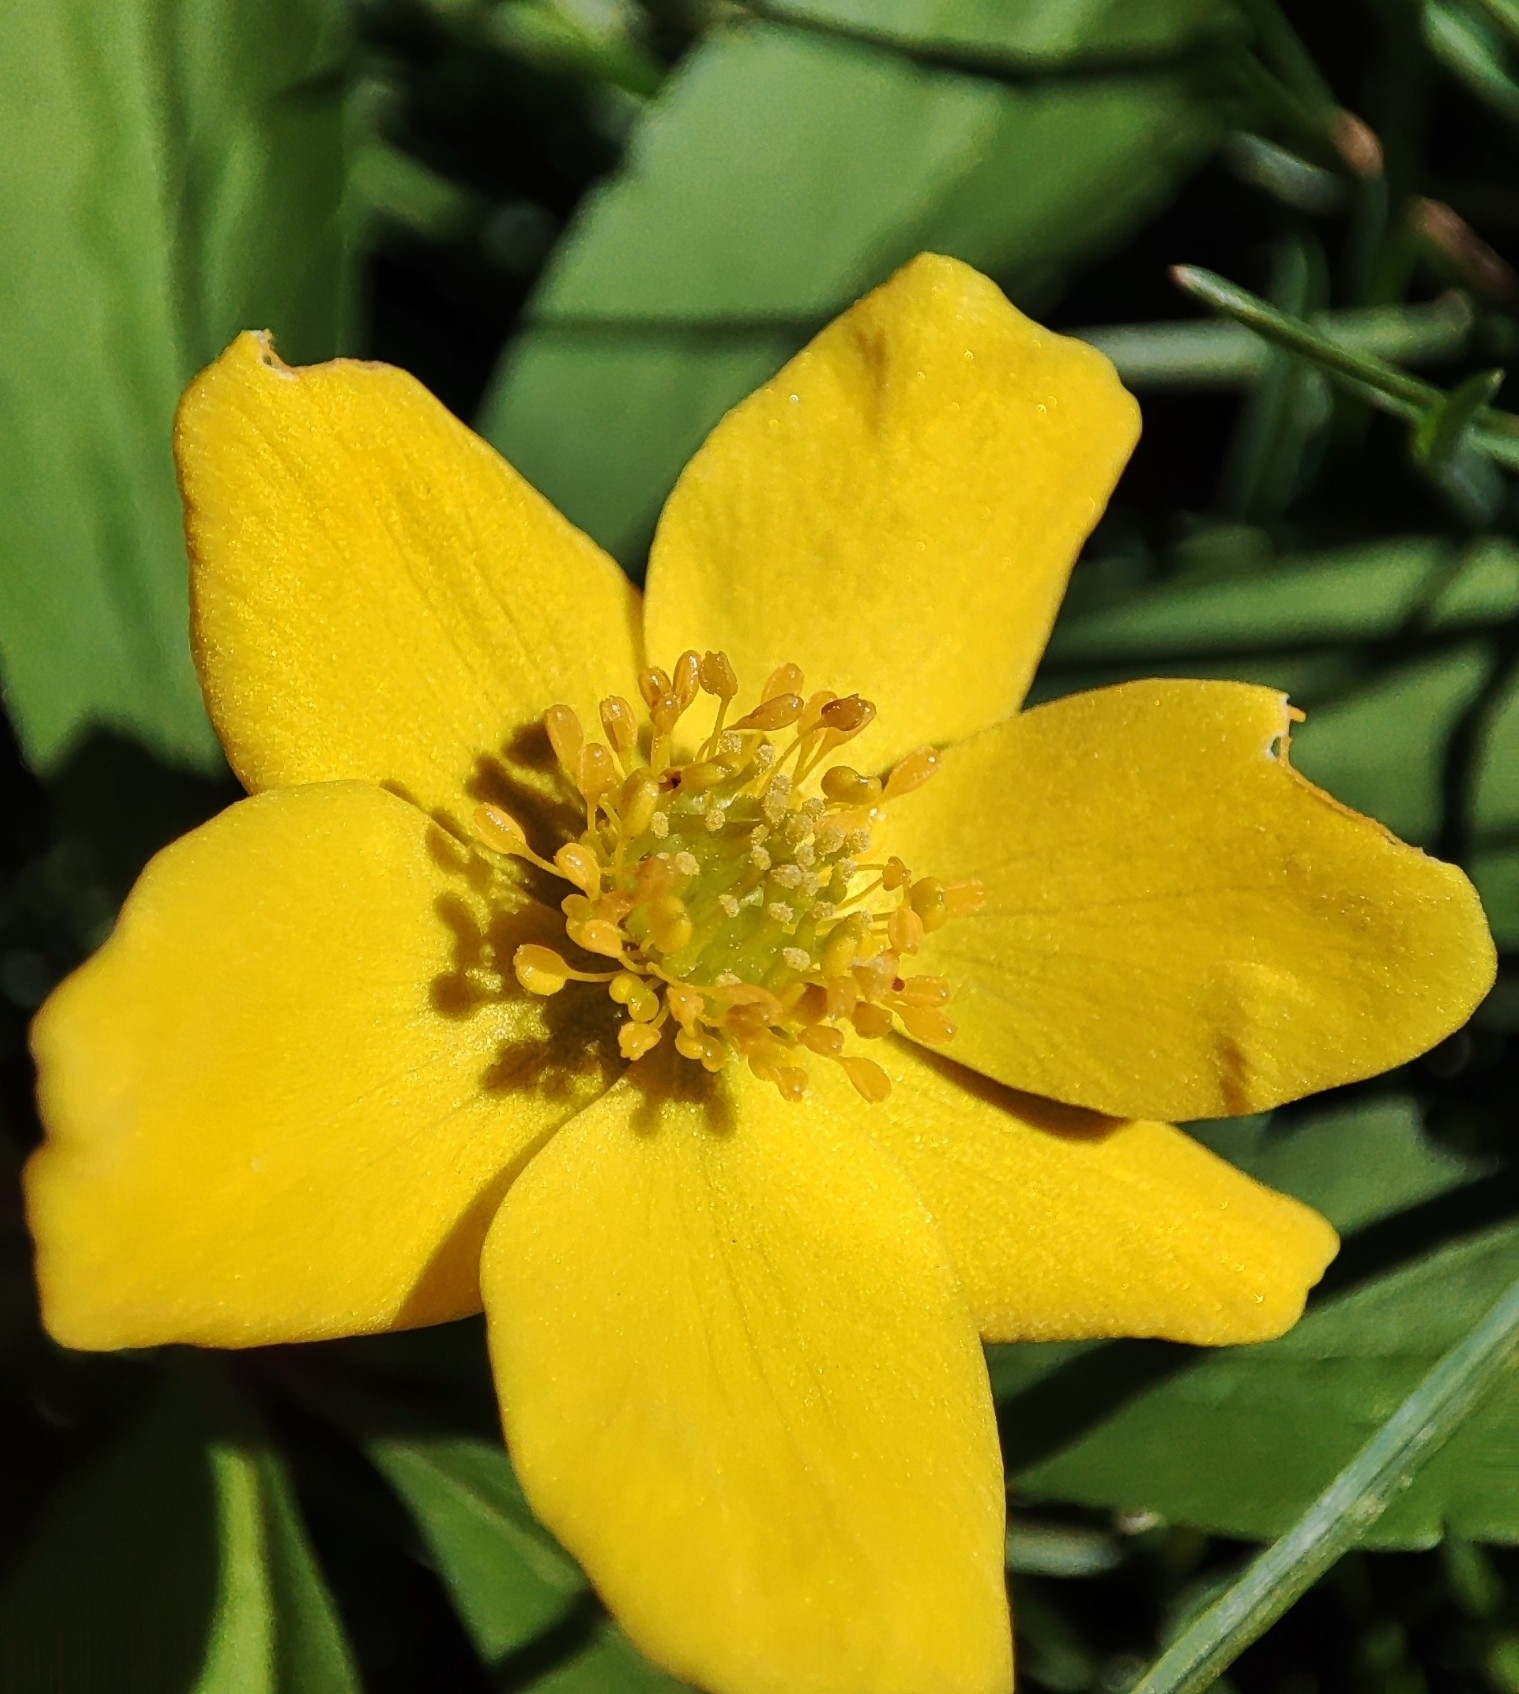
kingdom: Plantae
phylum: Tracheophyta
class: Magnoliopsida
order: Ranunculales
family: Ranunculaceae
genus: Anemone
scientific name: Anemone ranunculoides
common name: Yellow anemone
